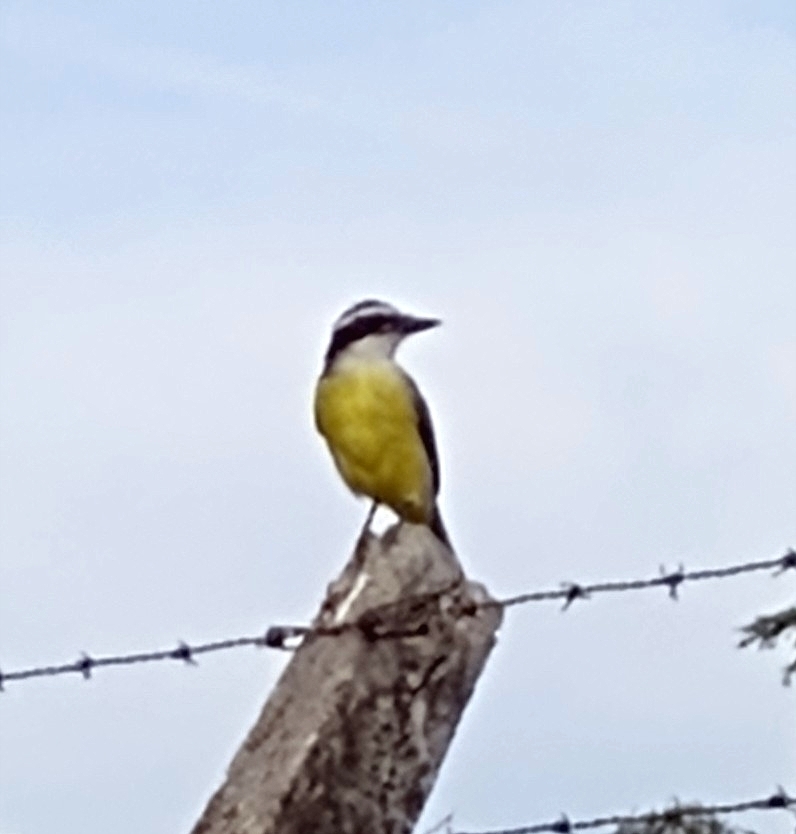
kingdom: Animalia
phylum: Chordata
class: Aves
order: Passeriformes
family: Tyrannidae
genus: Pitangus
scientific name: Pitangus sulphuratus
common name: Great kiskadee
